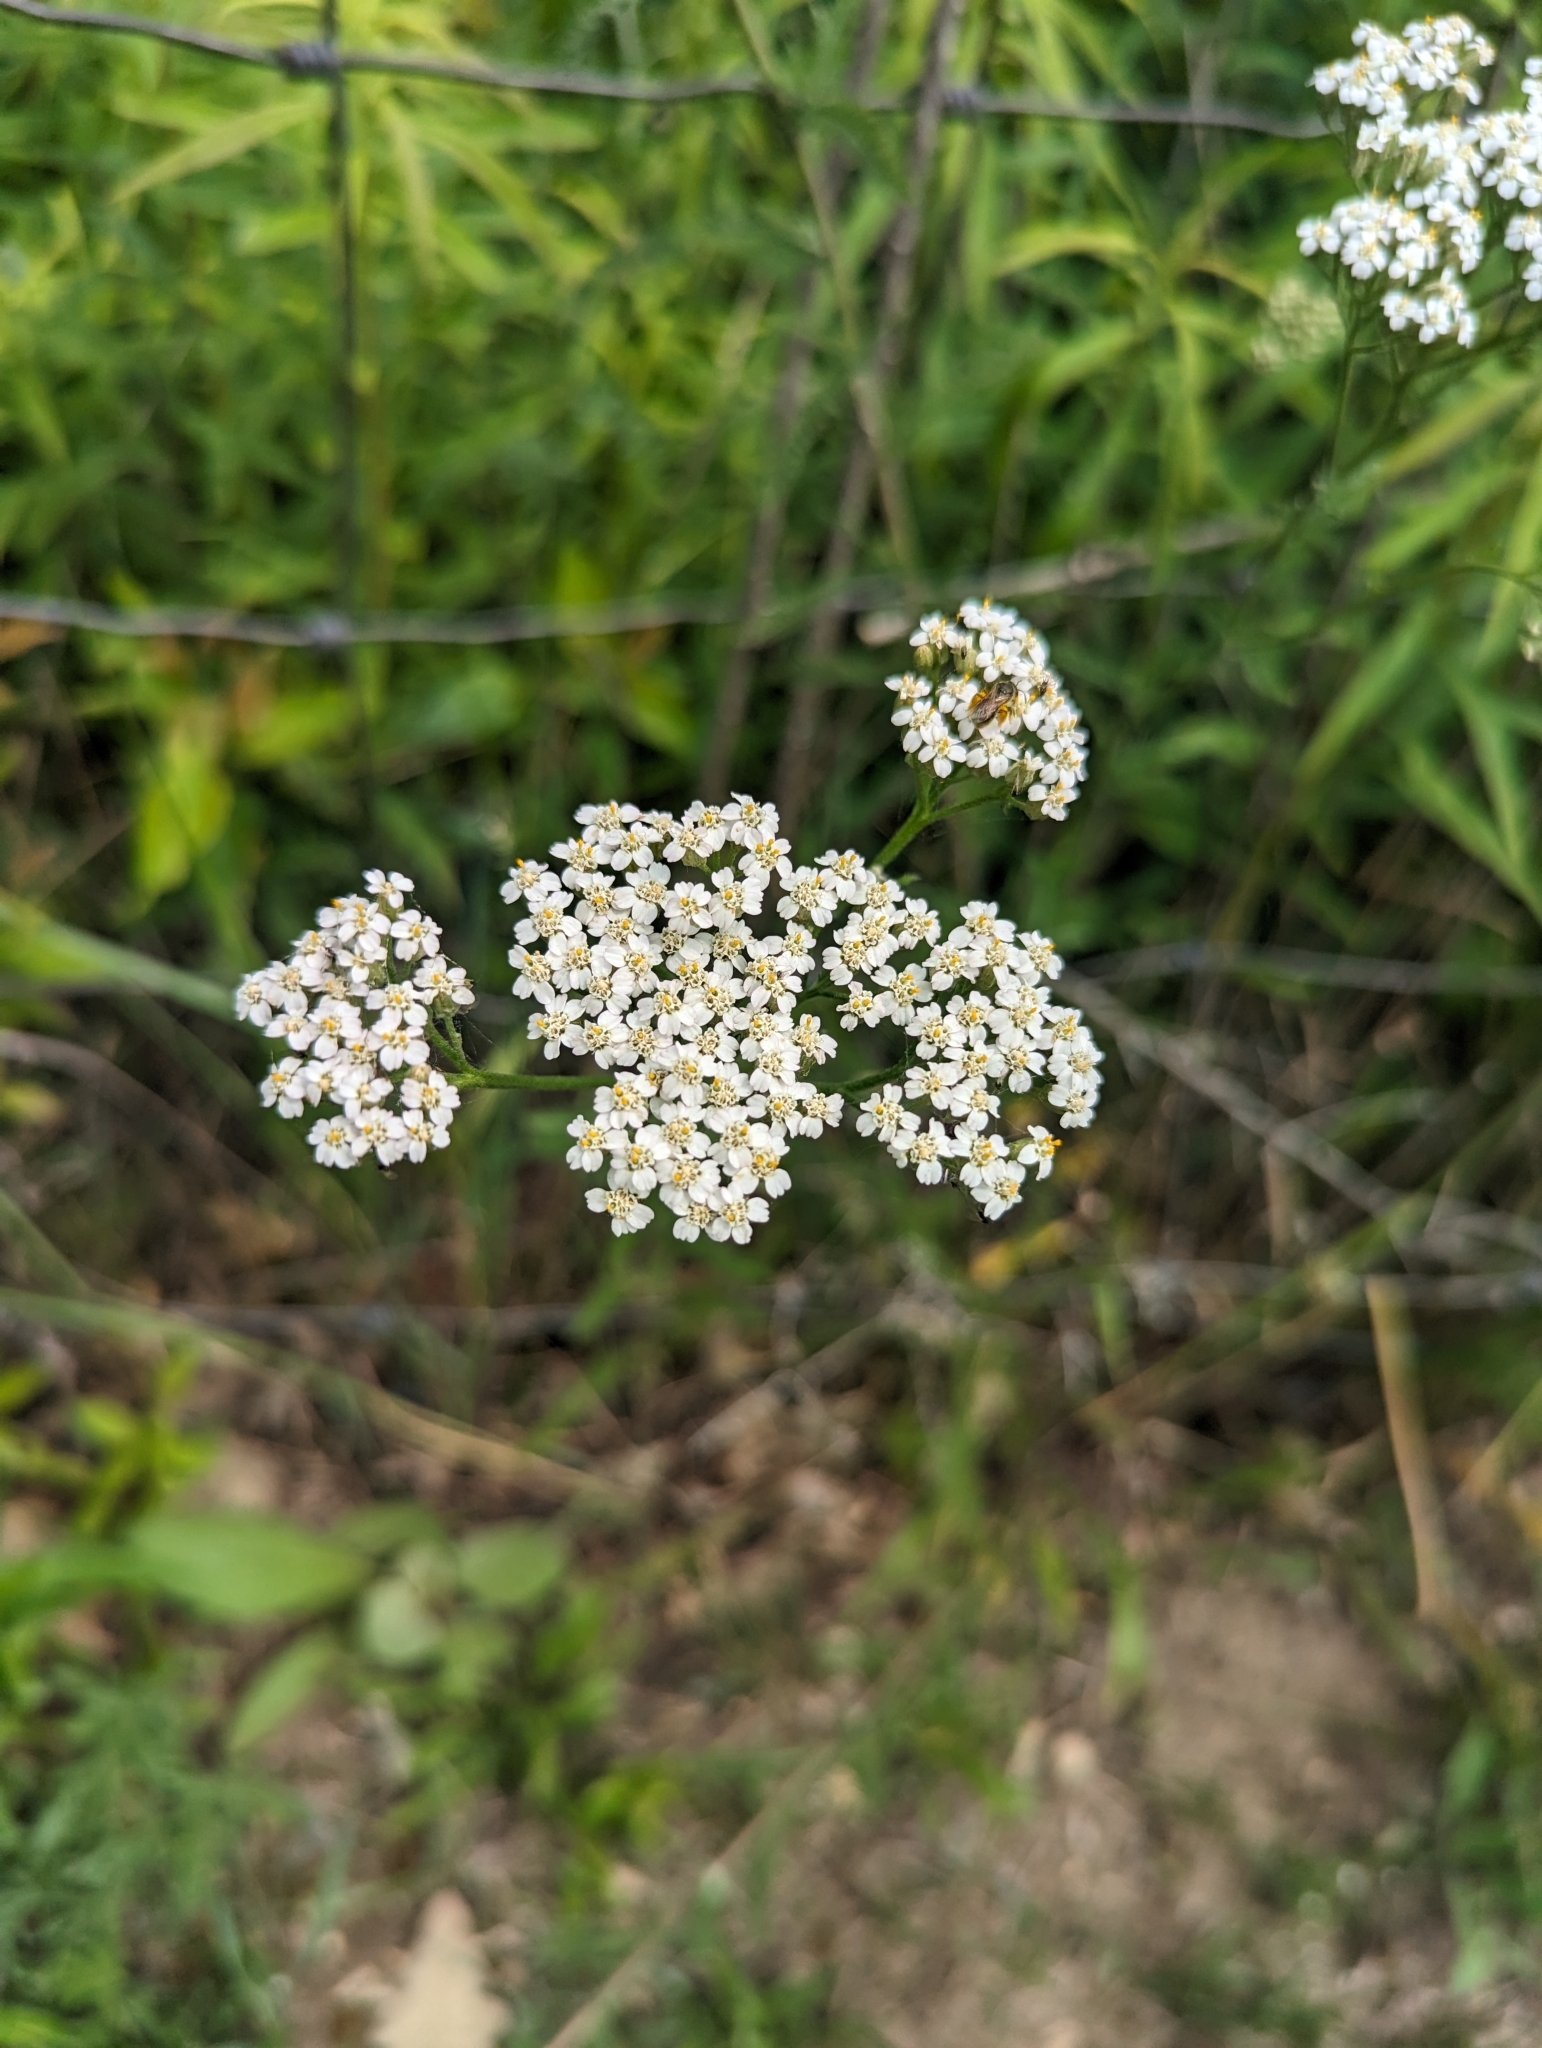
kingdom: Plantae
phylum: Tracheophyta
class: Magnoliopsida
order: Asterales
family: Asteraceae
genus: Achillea
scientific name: Achillea millefolium
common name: Yarrow
